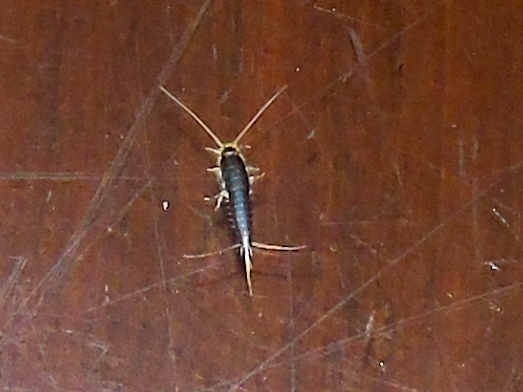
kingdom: Animalia
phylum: Arthropoda
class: Insecta
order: Zygentoma
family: Lepismatidae
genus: Ctenolepisma
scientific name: Ctenolepisma longicaudatum
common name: Silverfish
